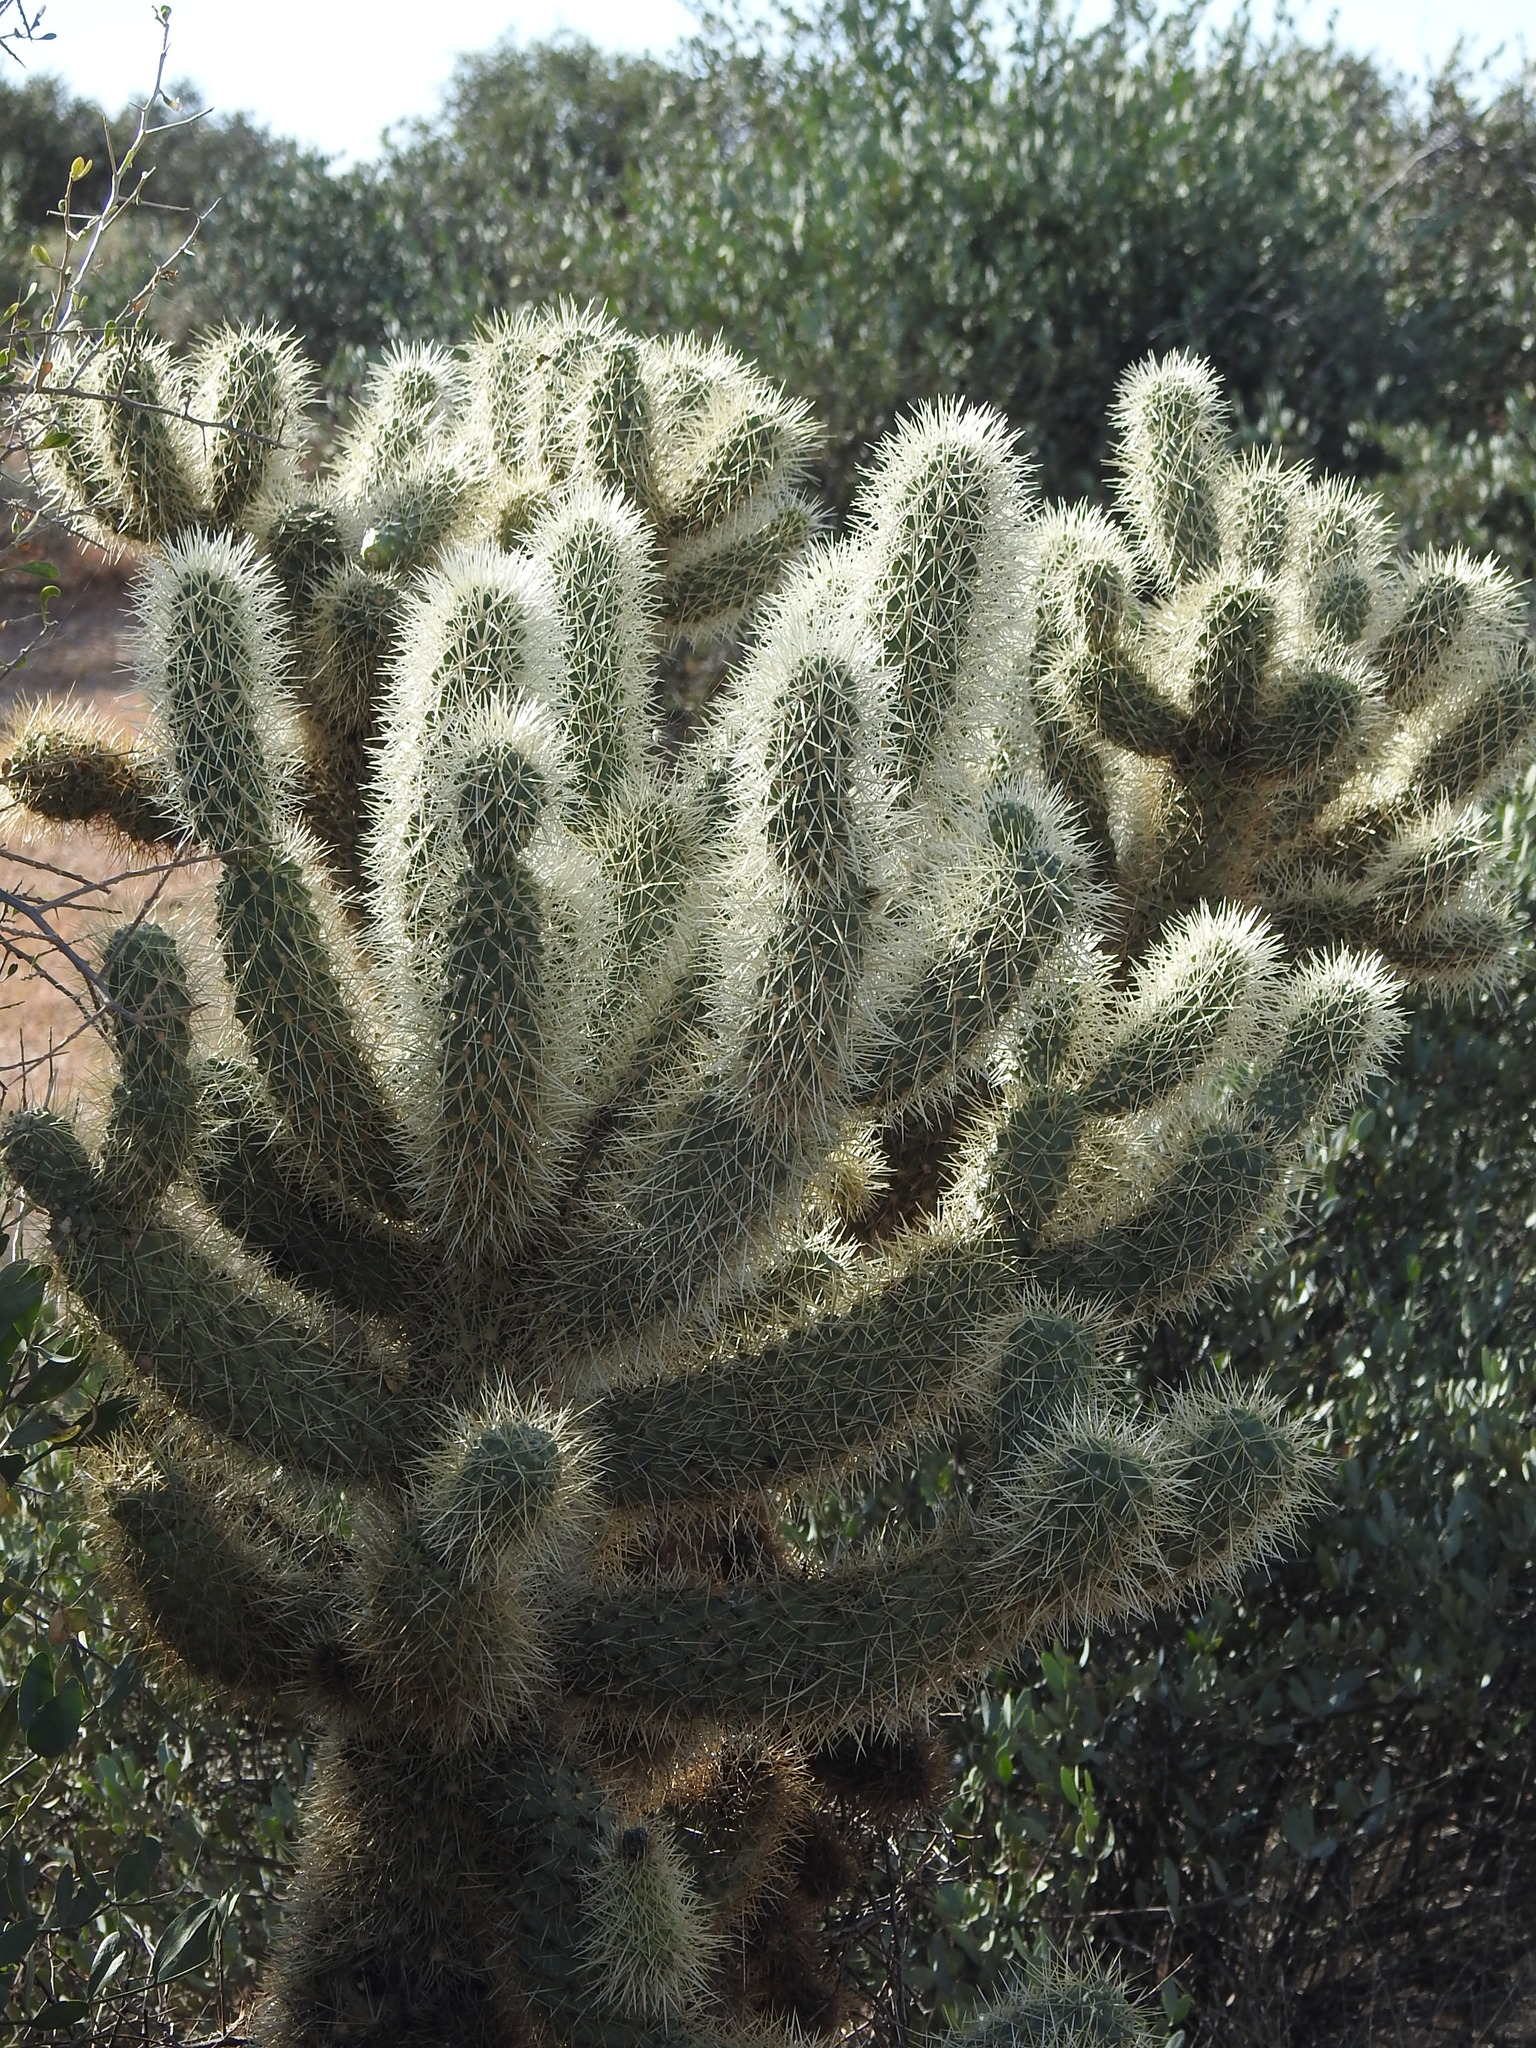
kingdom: Plantae
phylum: Tracheophyta
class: Magnoliopsida
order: Caryophyllales
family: Cactaceae
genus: Cylindropuntia
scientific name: Cylindropuntia fosbergii
